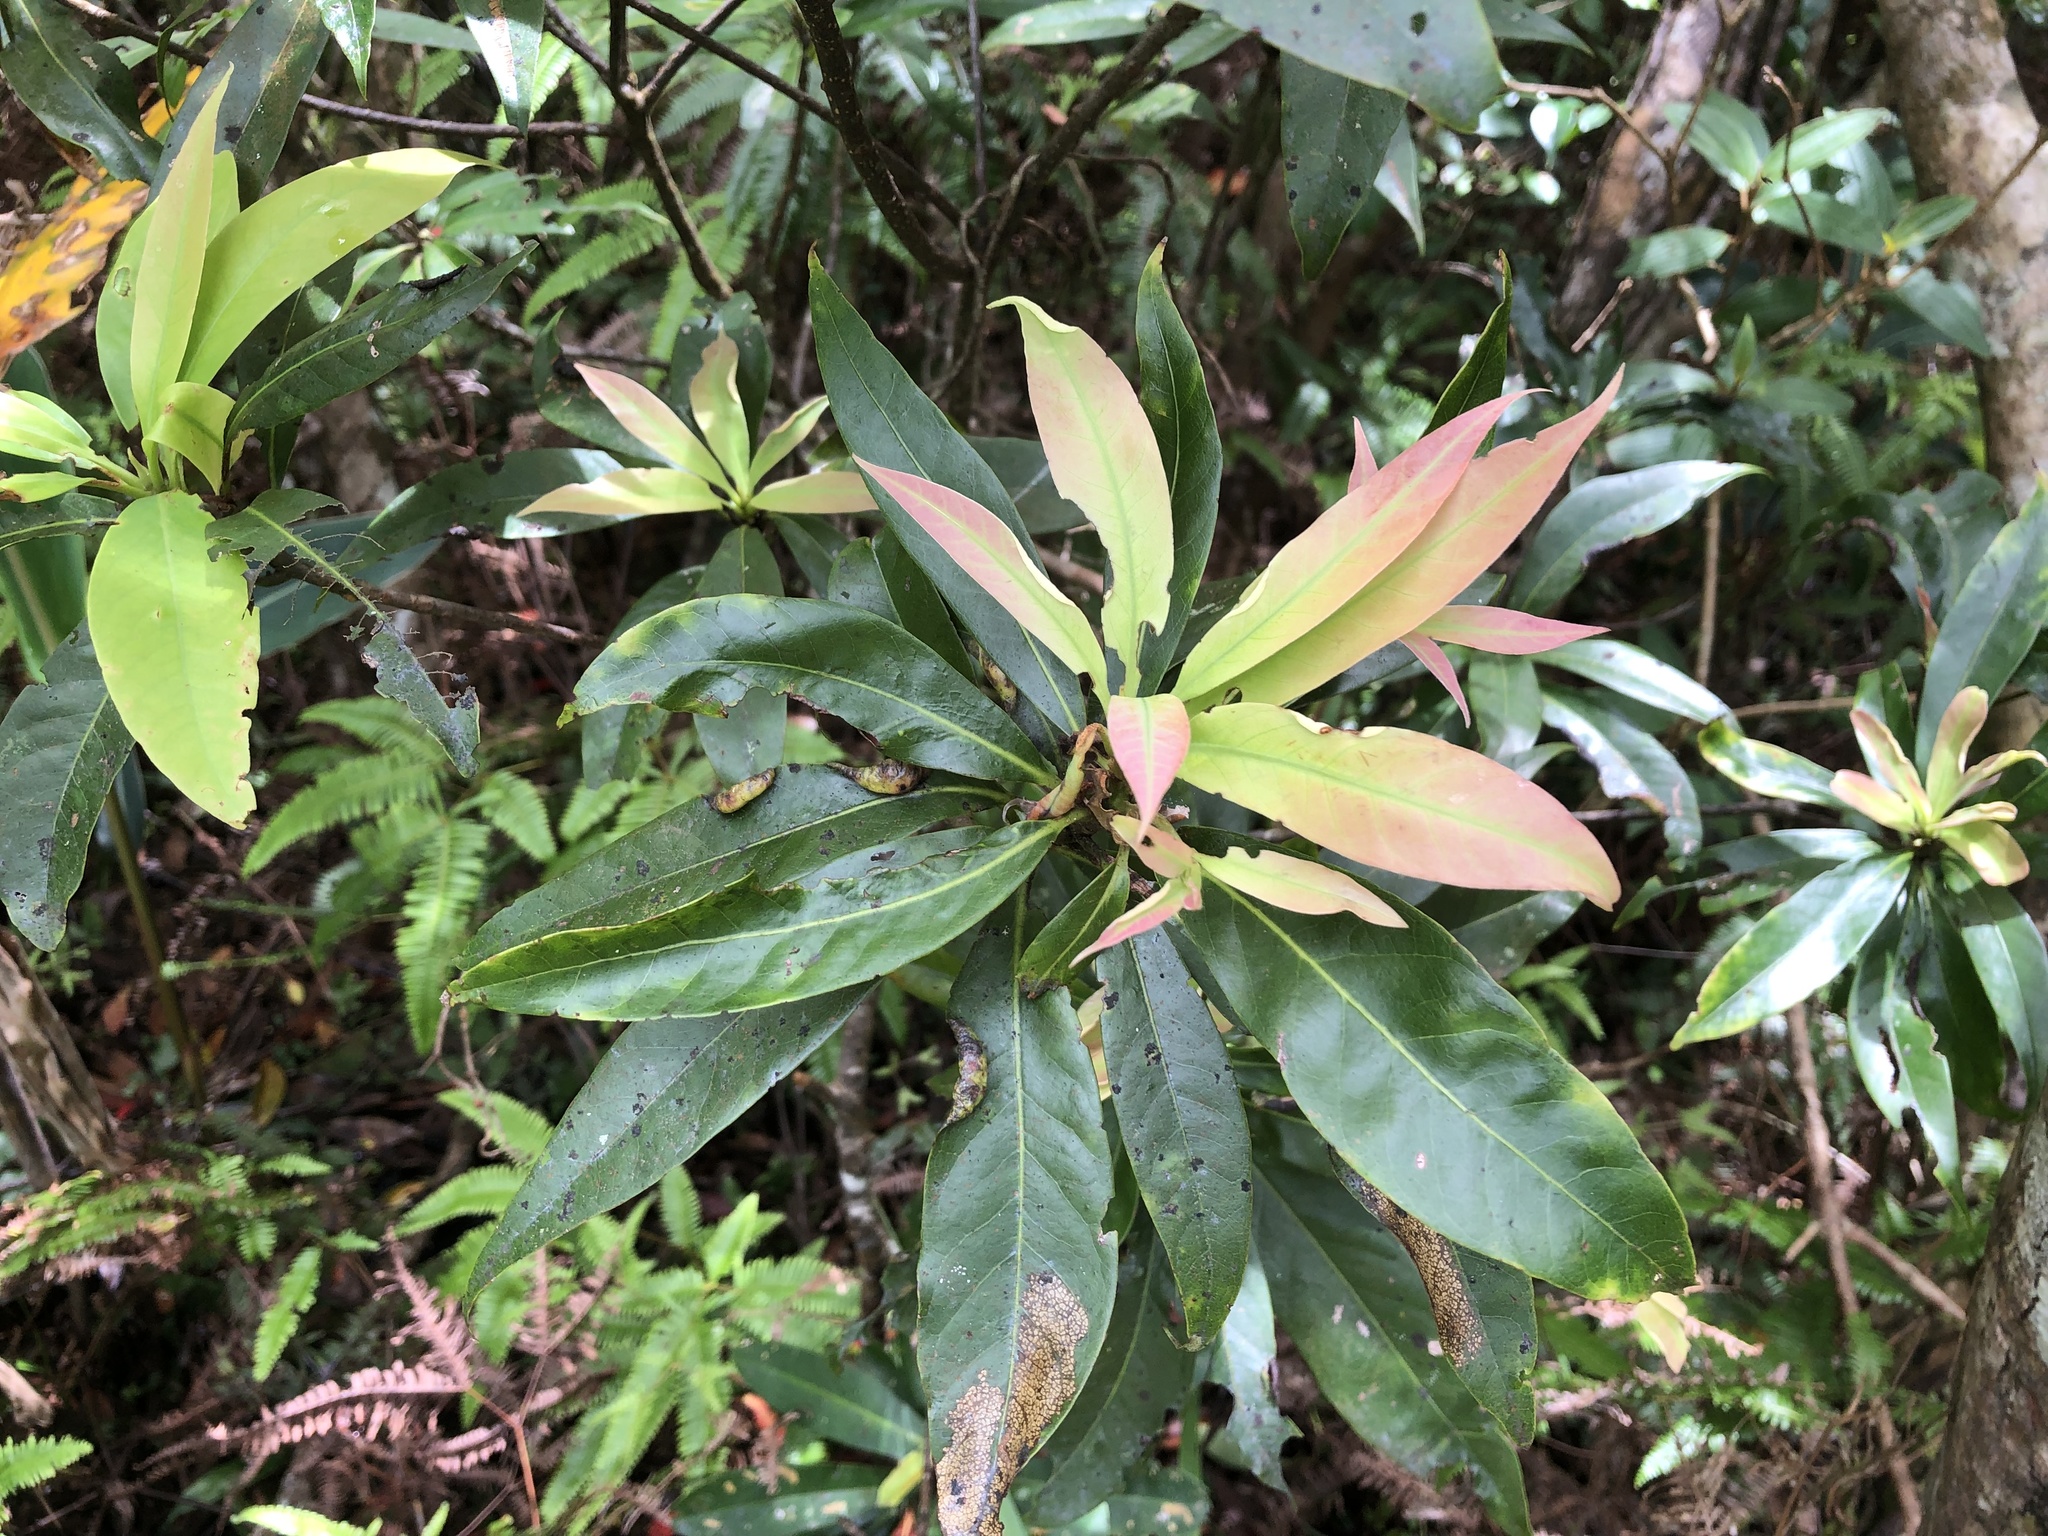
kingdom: Plantae
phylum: Tracheophyta
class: Magnoliopsida
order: Ericales
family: Theaceae
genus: Schima
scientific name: Schima superba
